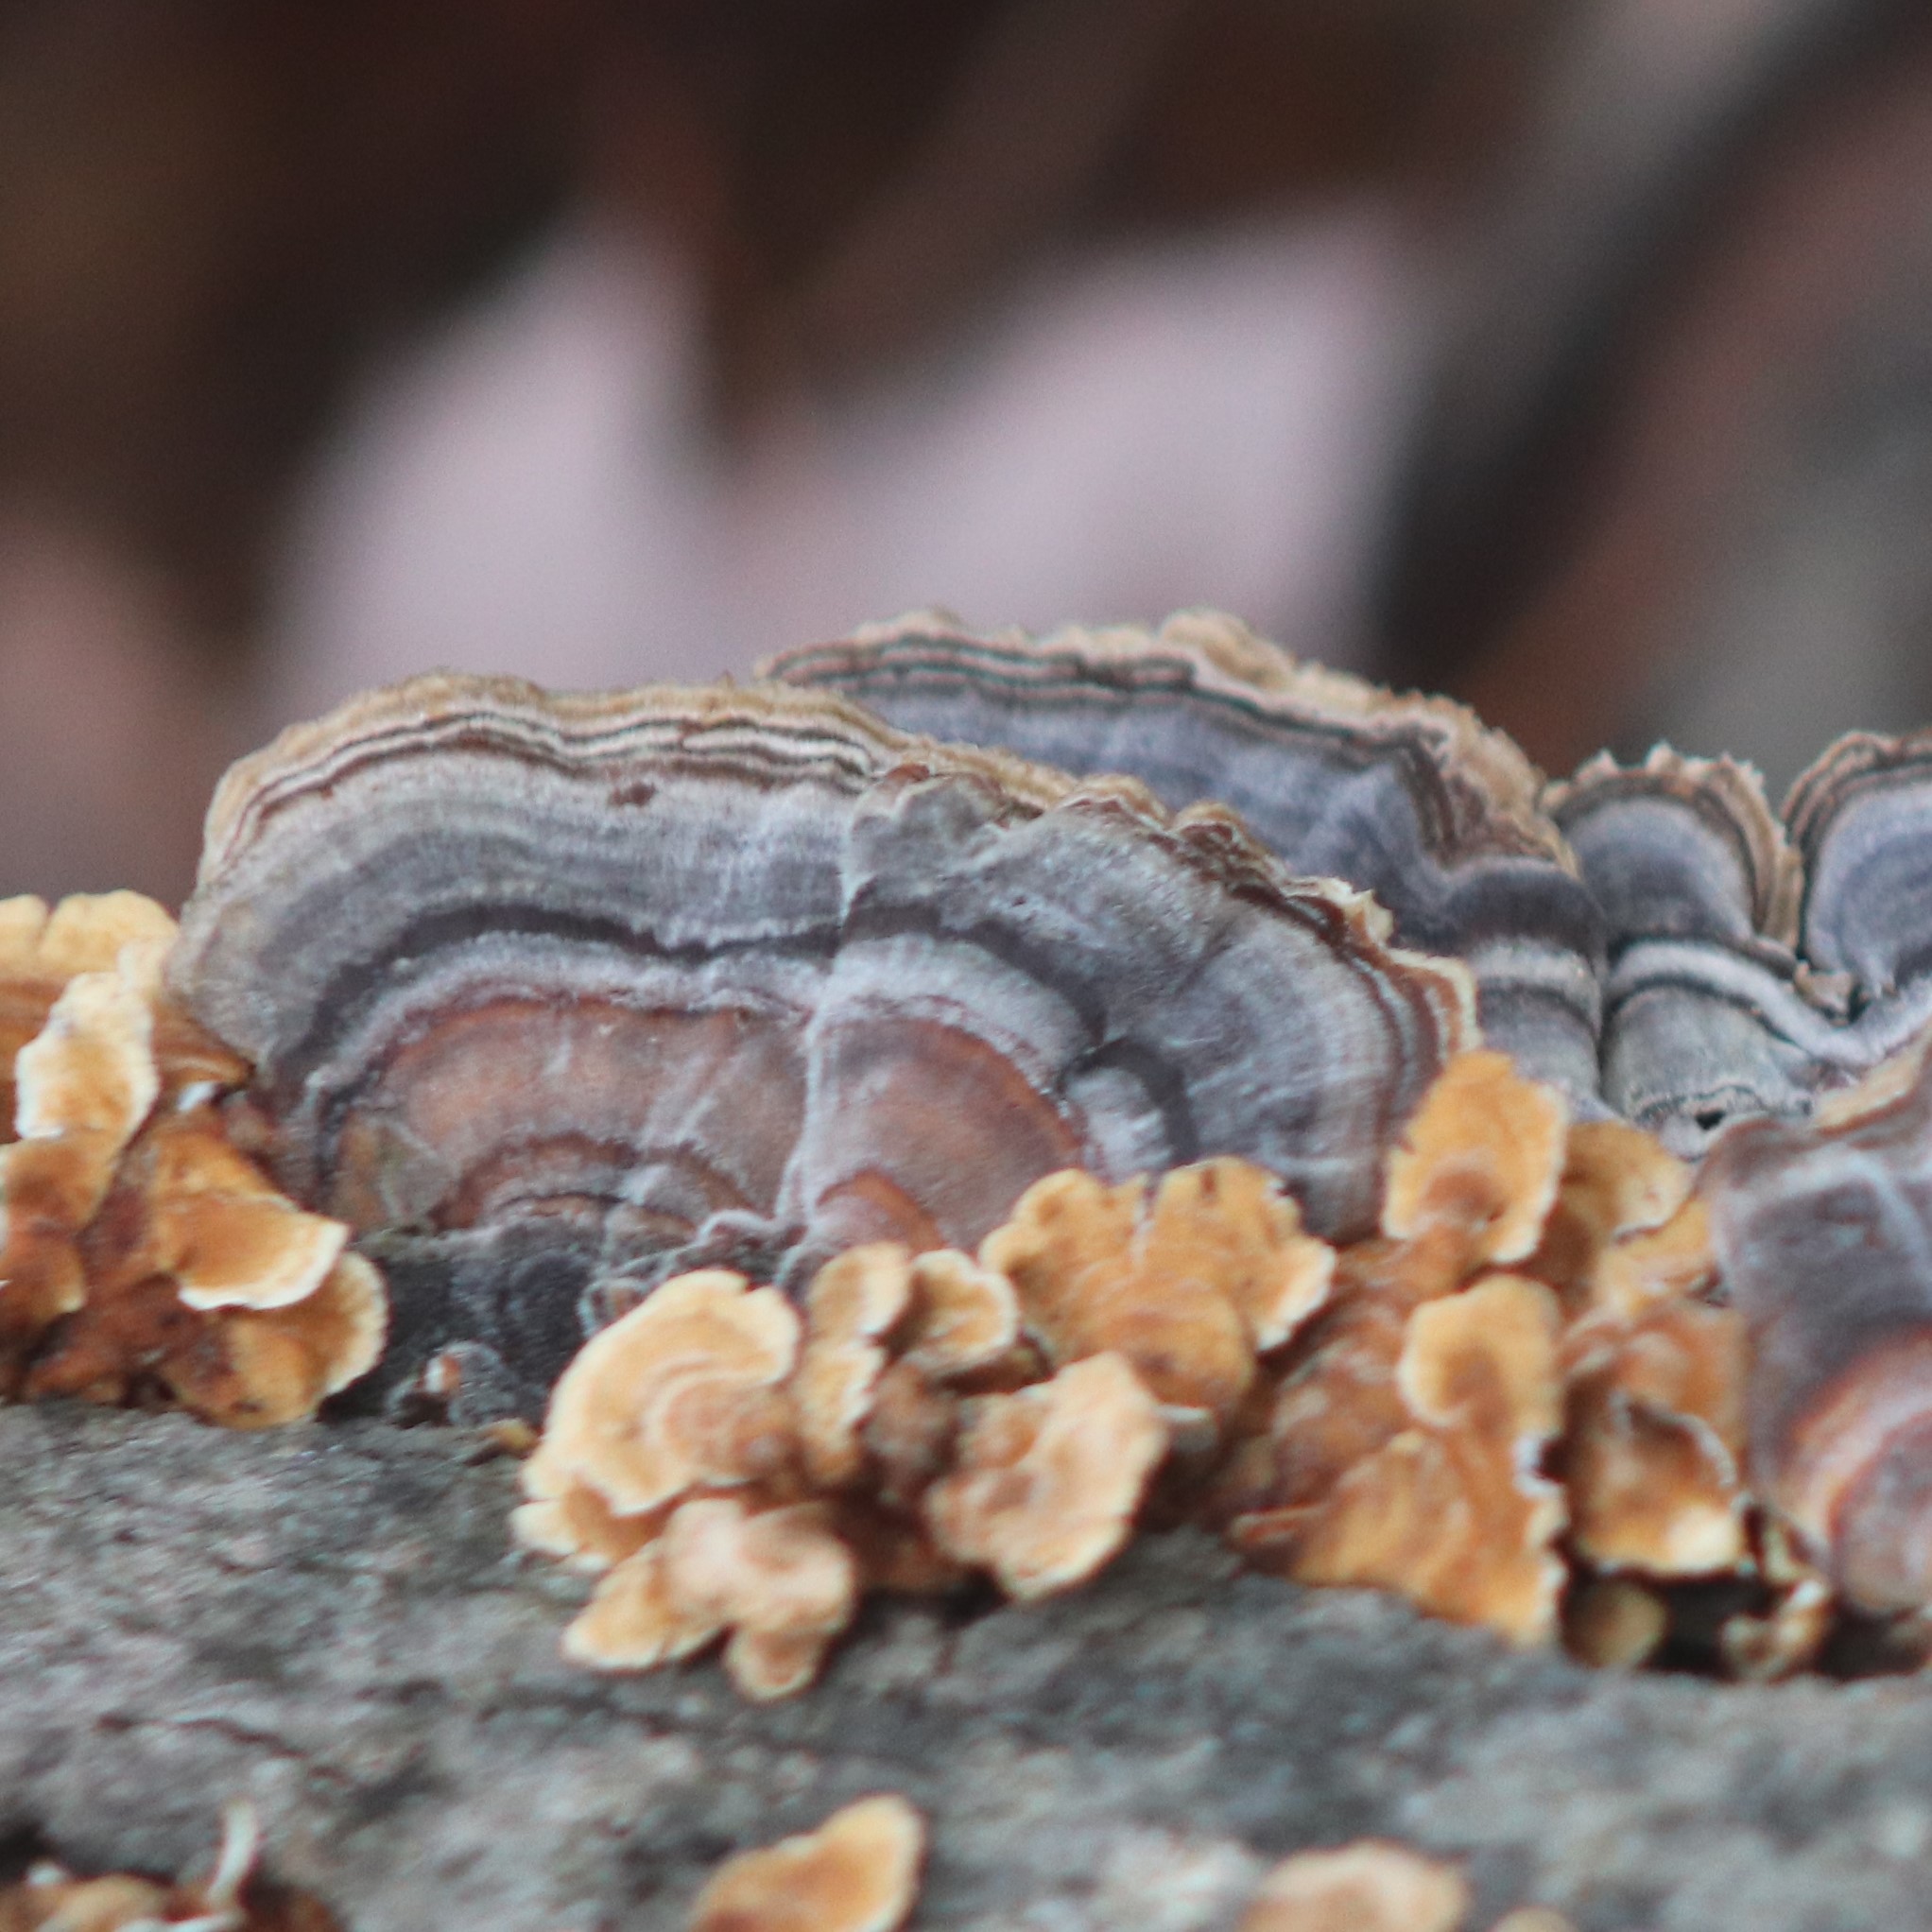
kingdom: Fungi
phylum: Basidiomycota
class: Agaricomycetes
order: Polyporales
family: Polyporaceae
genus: Trametes
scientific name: Trametes versicolor
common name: Turkeytail
